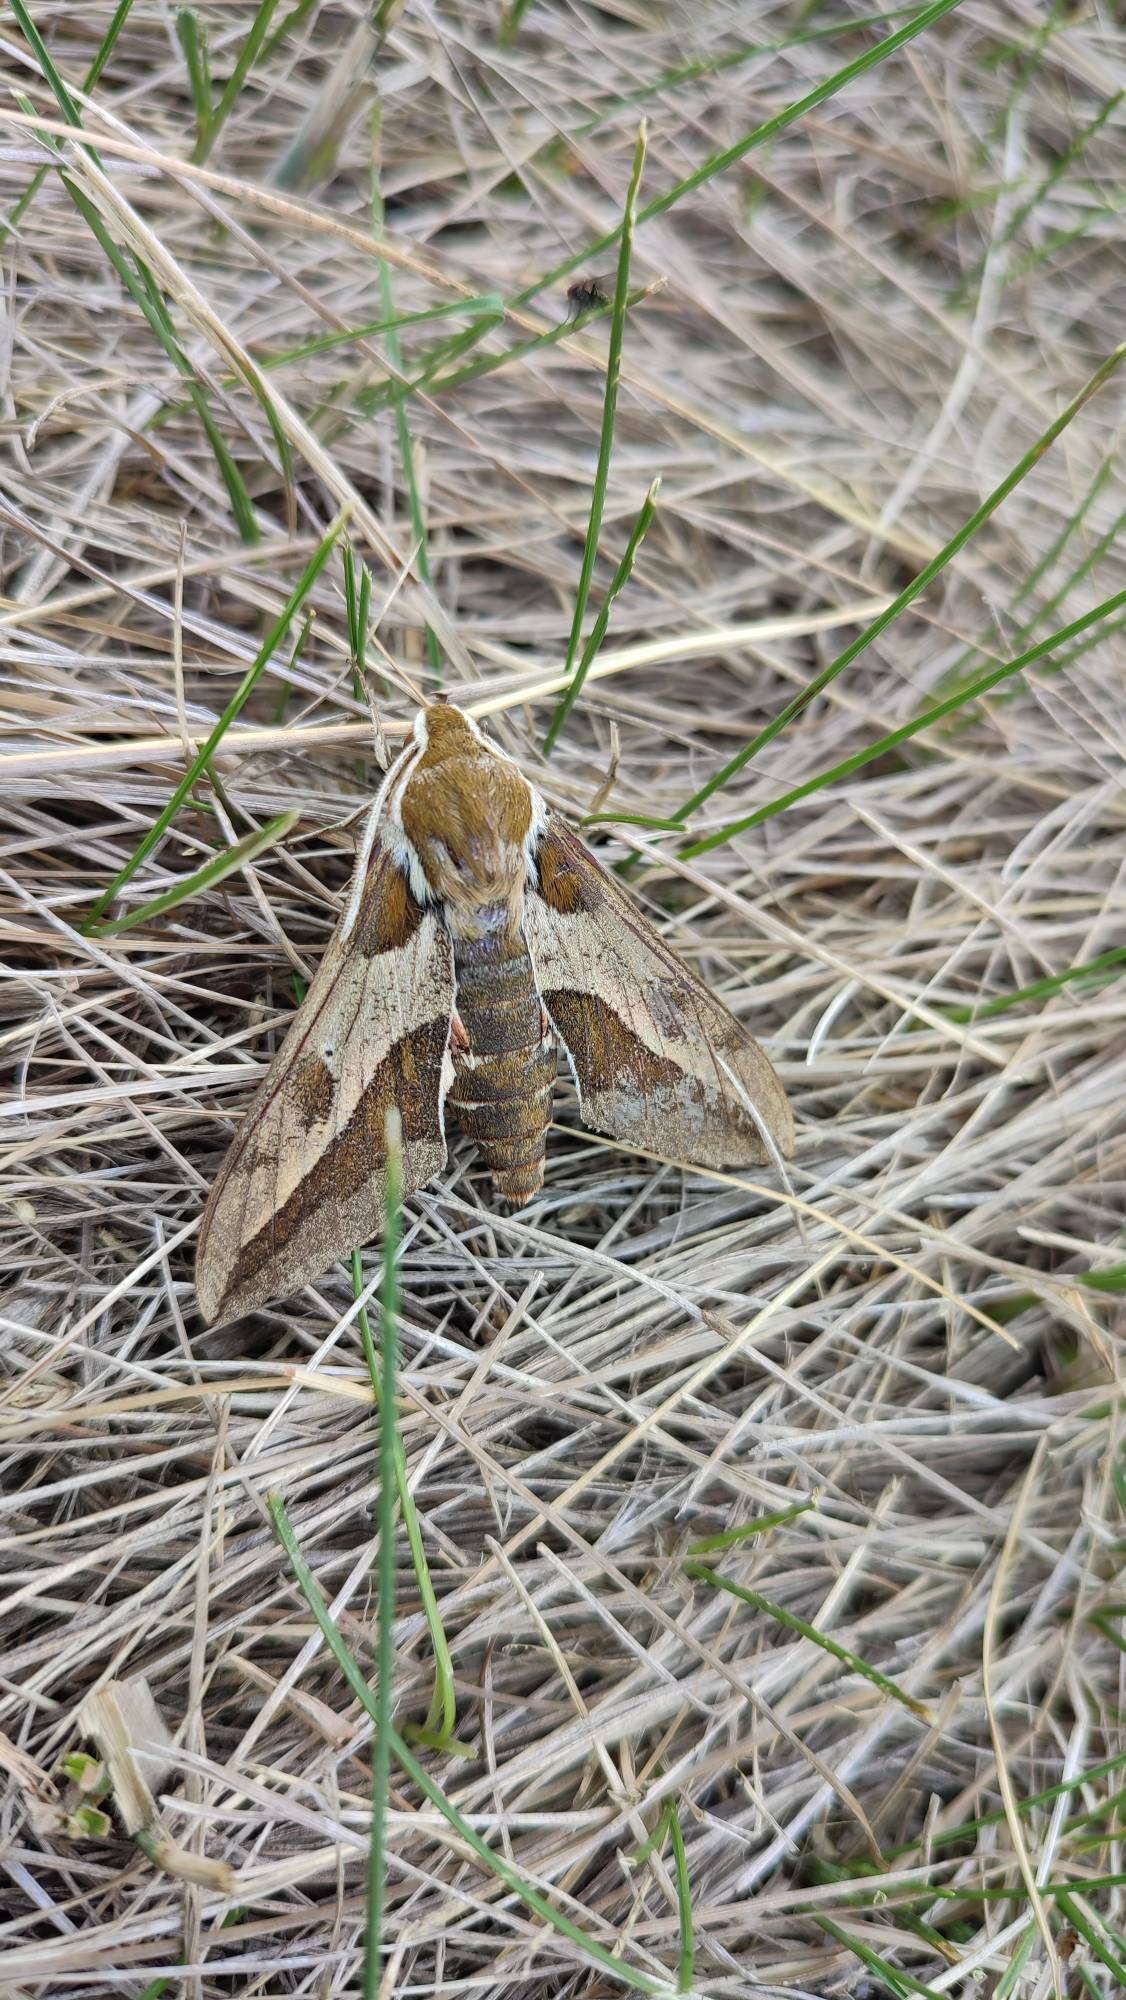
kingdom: Animalia
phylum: Arthropoda
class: Insecta
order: Lepidoptera
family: Sphingidae
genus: Hyles
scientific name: Hyles euphorbiae
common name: Spurge hawk-moth
